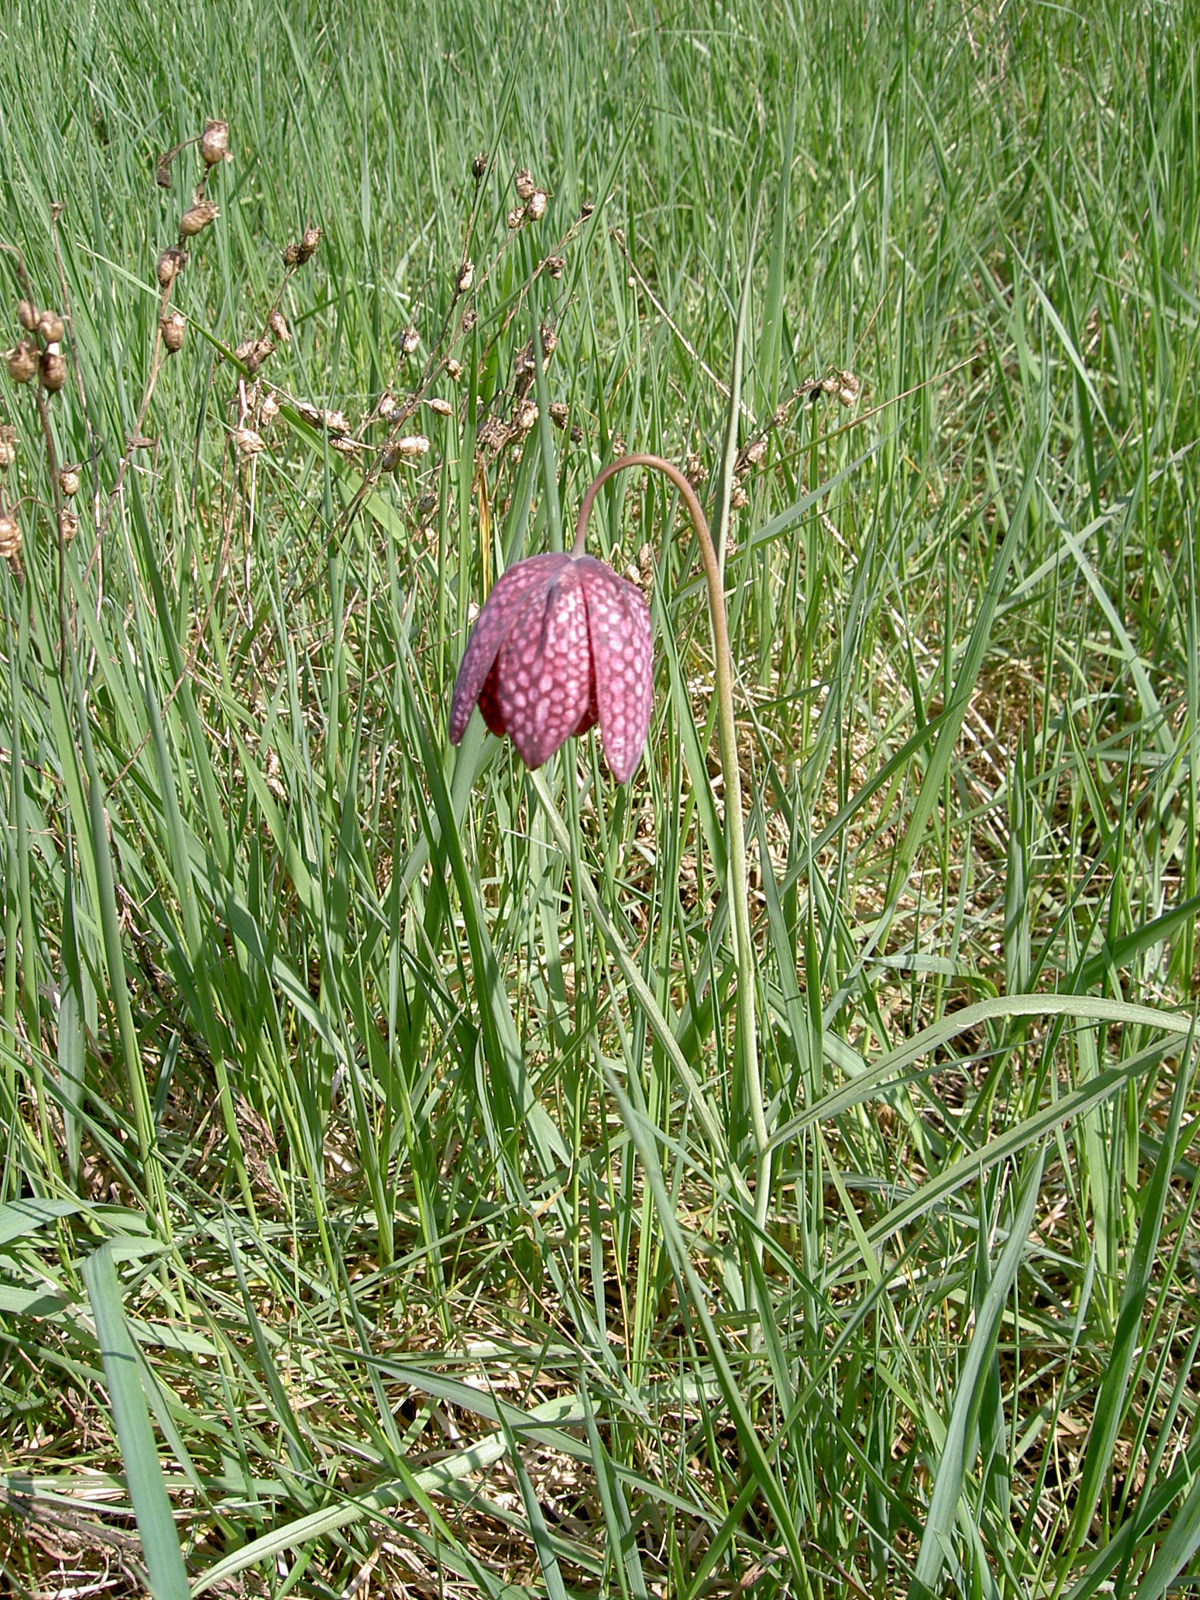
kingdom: Plantae
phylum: Tracheophyta
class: Liliopsida
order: Liliales
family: Liliaceae
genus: Fritillaria
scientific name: Fritillaria meleagris
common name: Fritillary
